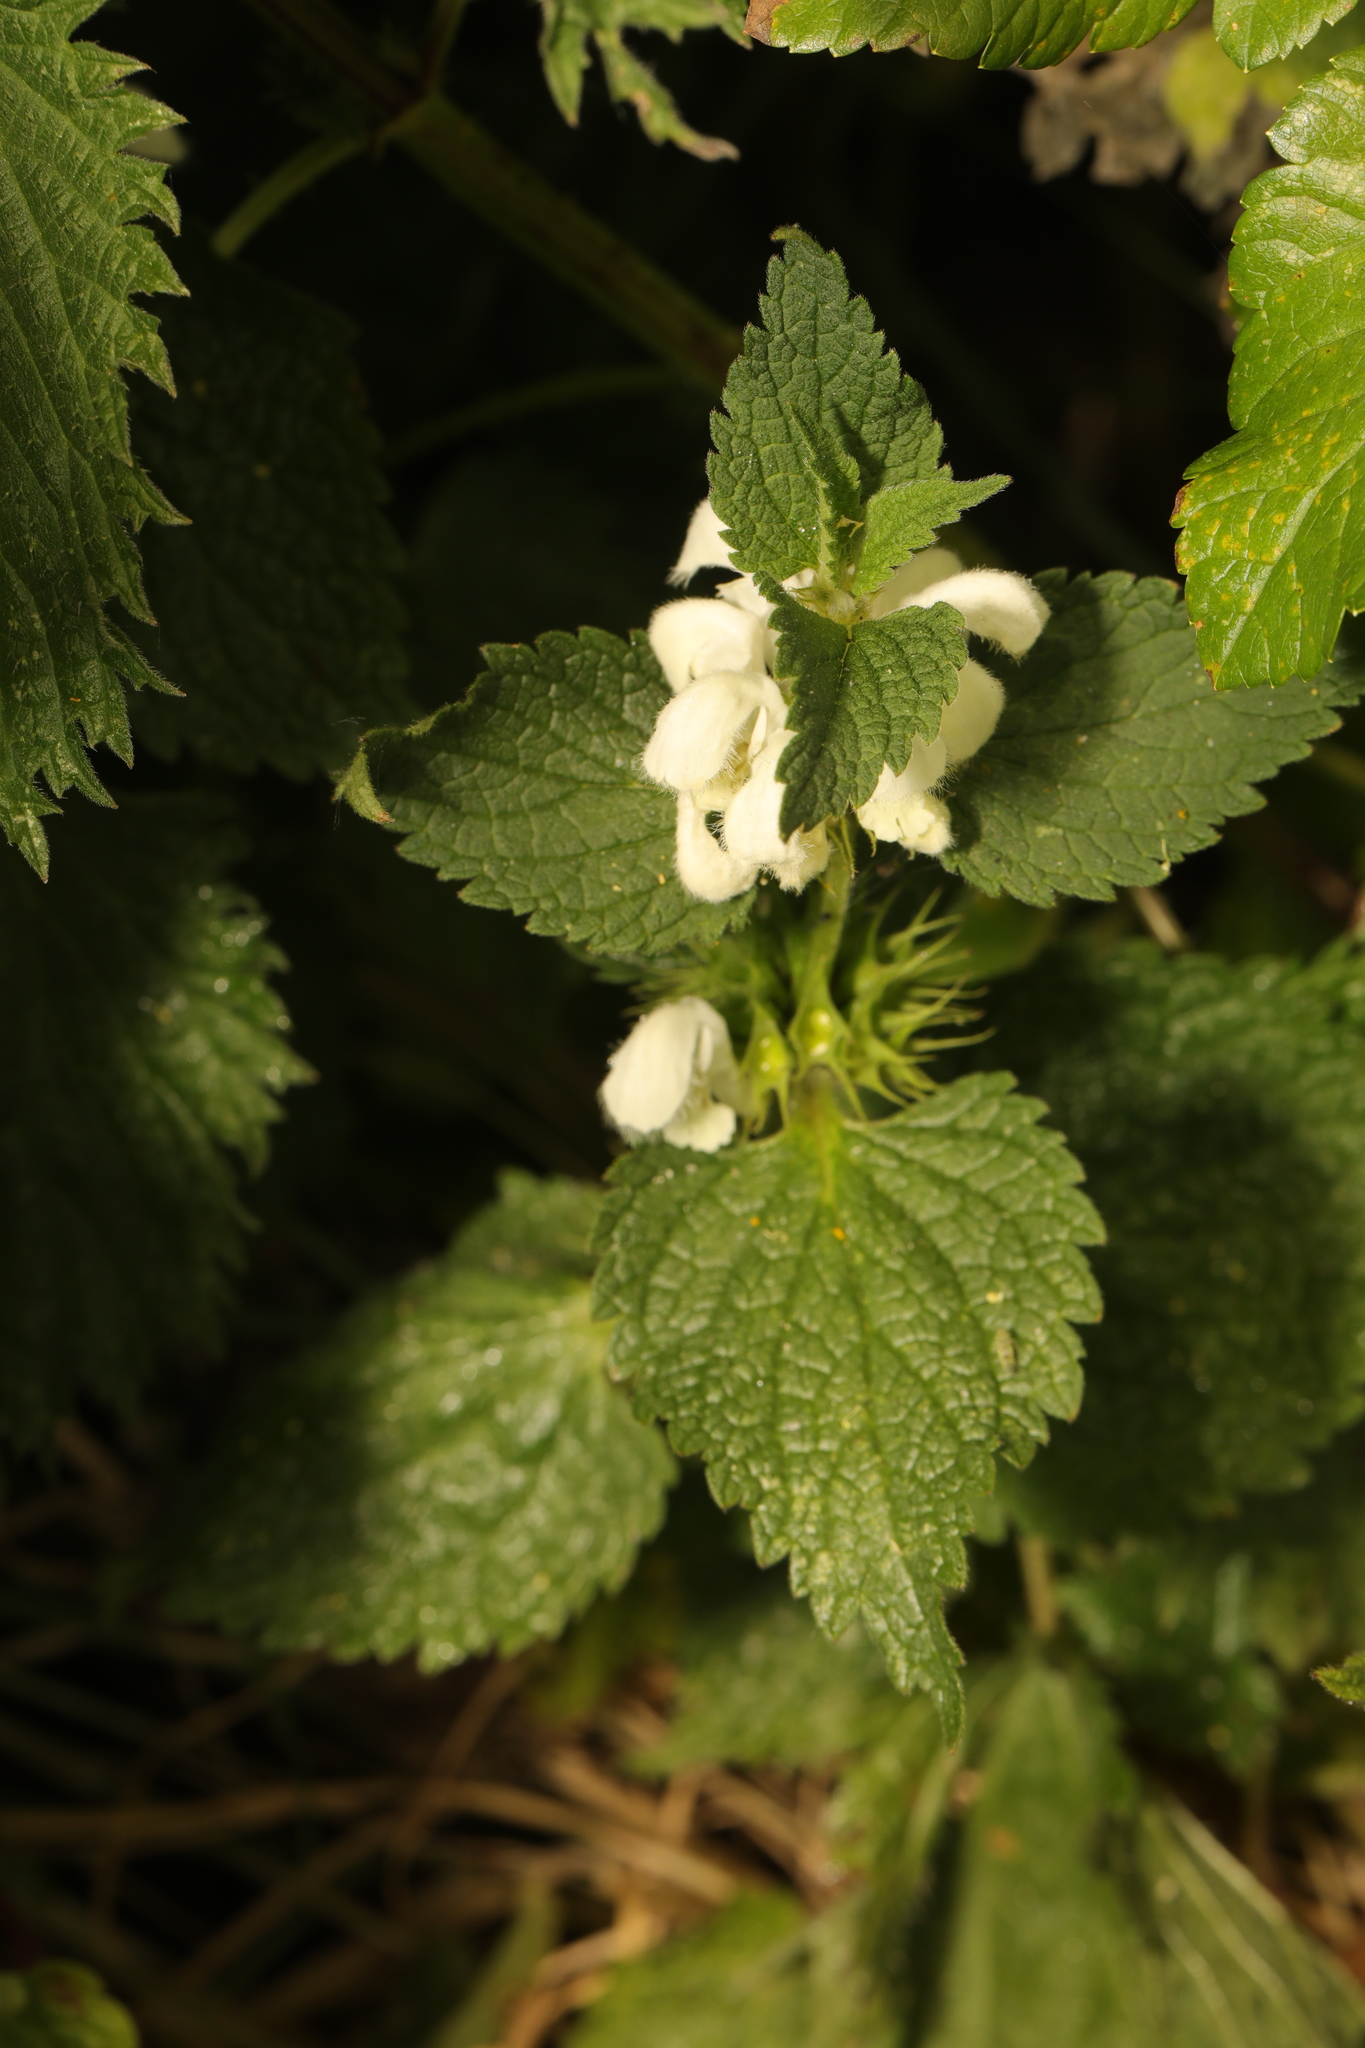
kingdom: Plantae
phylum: Tracheophyta
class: Magnoliopsida
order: Lamiales
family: Lamiaceae
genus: Lamium
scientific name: Lamium album
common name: White dead-nettle
